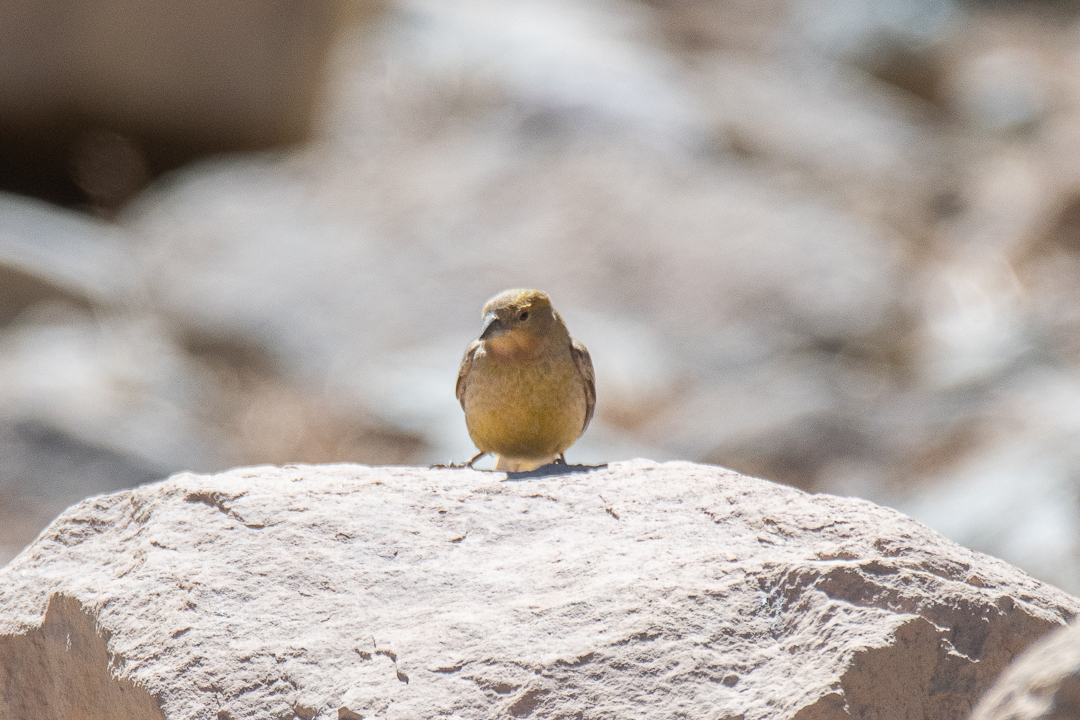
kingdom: Animalia
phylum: Chordata
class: Aves
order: Passeriformes
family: Thraupidae
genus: Sicalis
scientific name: Sicalis auriventris
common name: Greater yellow finch
